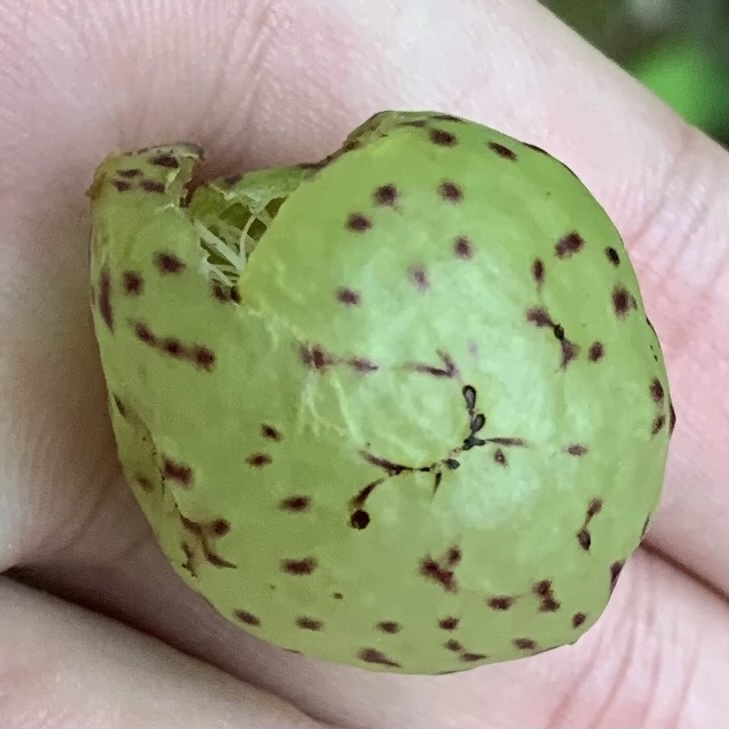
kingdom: Animalia
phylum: Arthropoda
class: Insecta
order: Hymenoptera
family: Cynipidae
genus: Amphibolips
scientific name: Amphibolips
